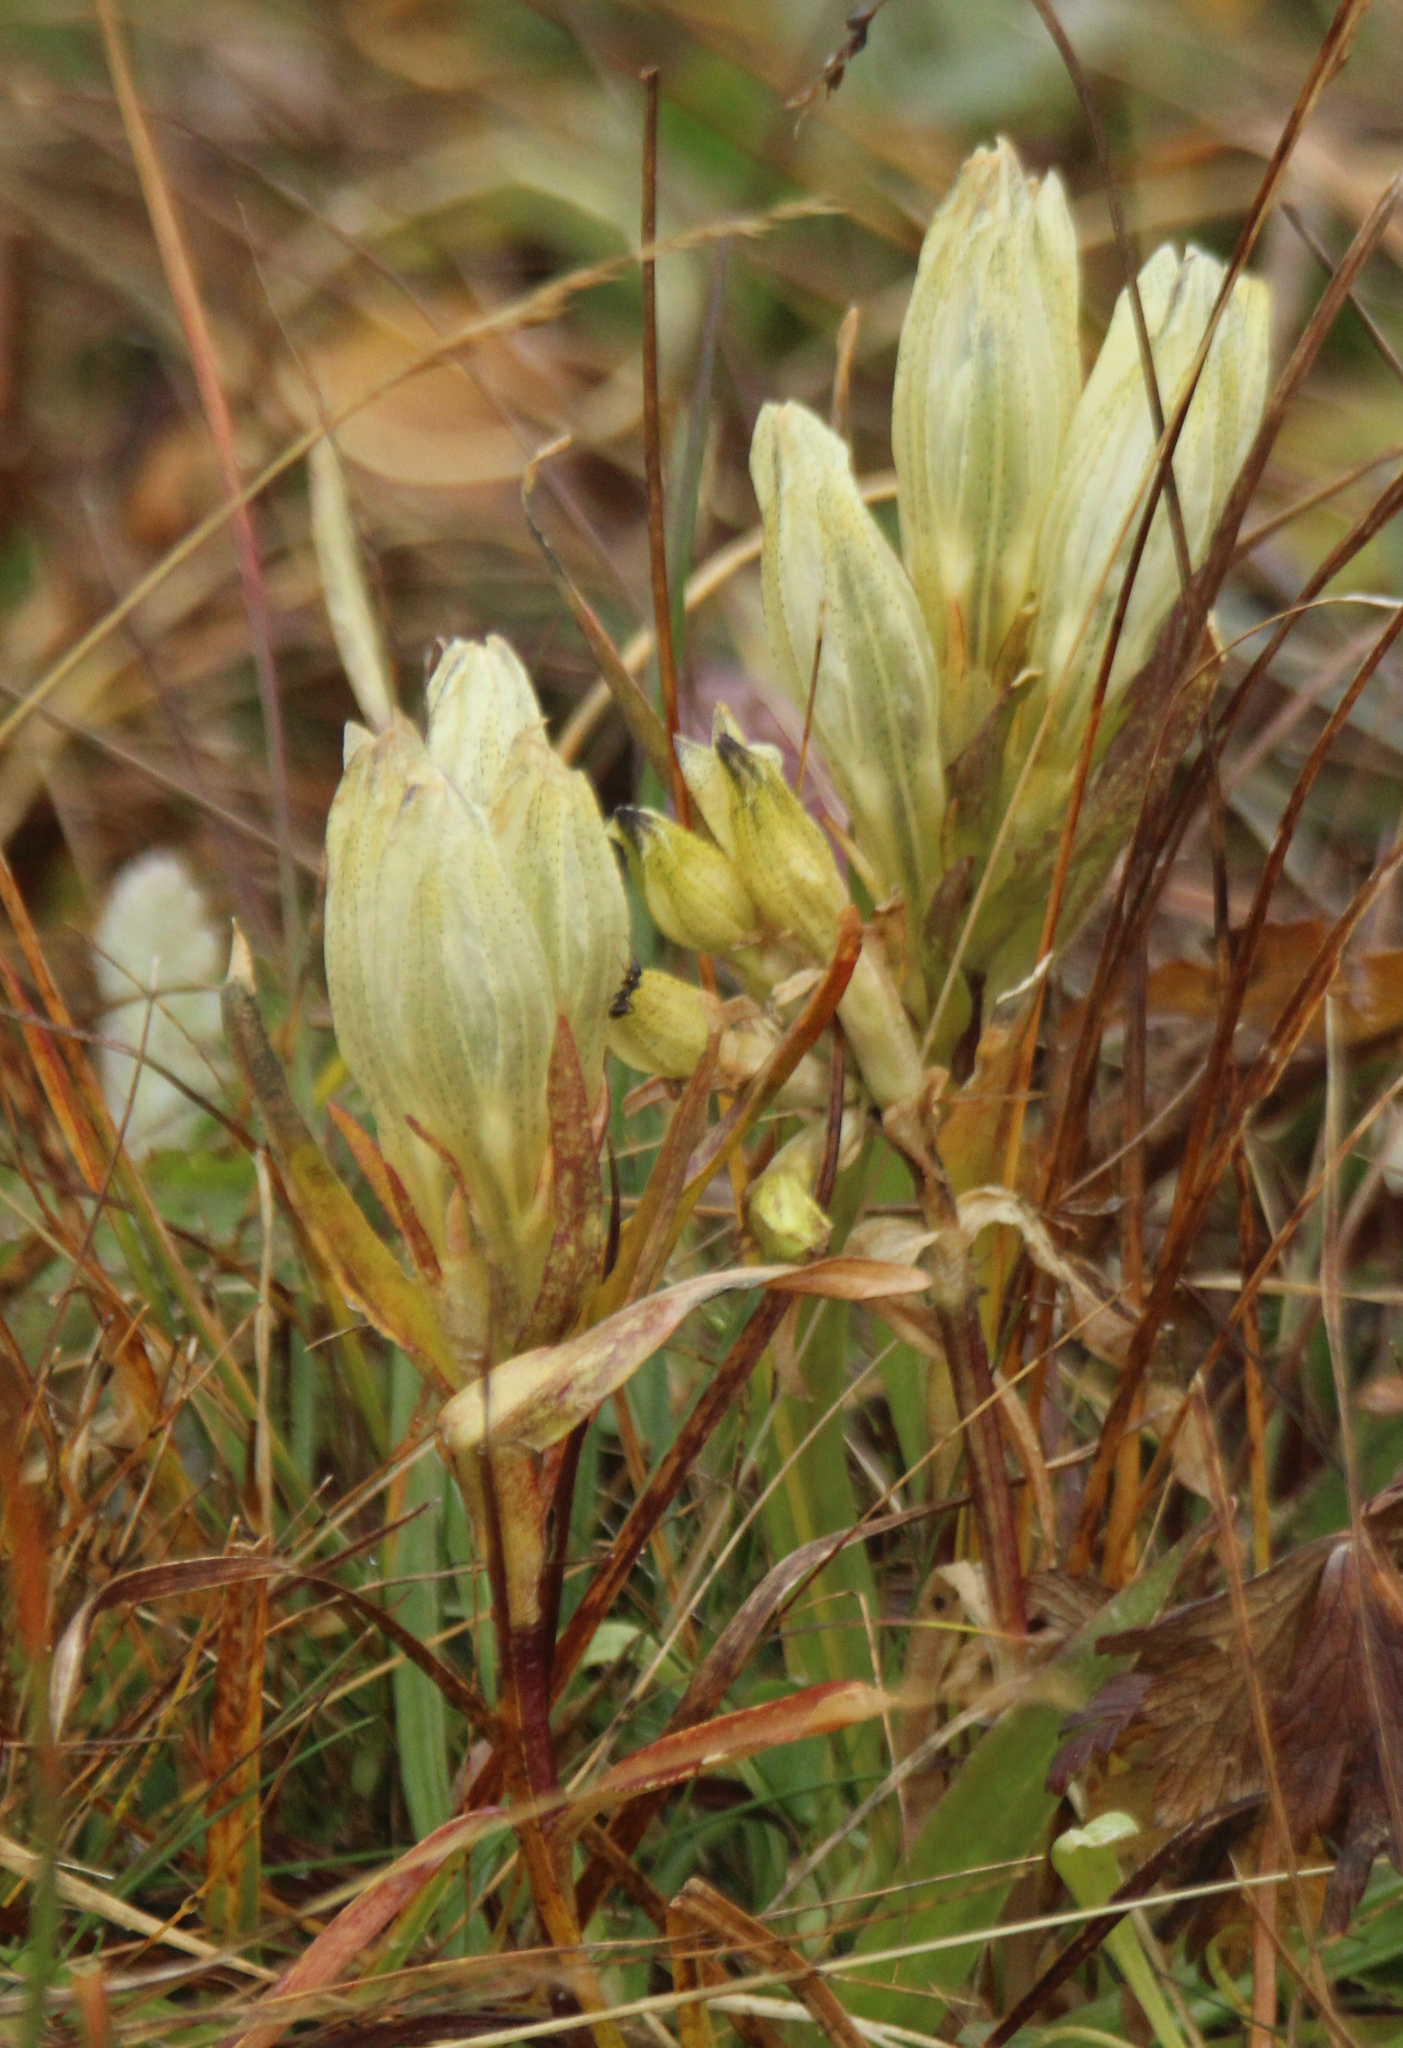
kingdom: Plantae
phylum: Tracheophyta
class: Magnoliopsida
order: Gentianales
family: Gentianaceae
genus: Gentiana
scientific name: Gentiana algida
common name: Arctic gentian
